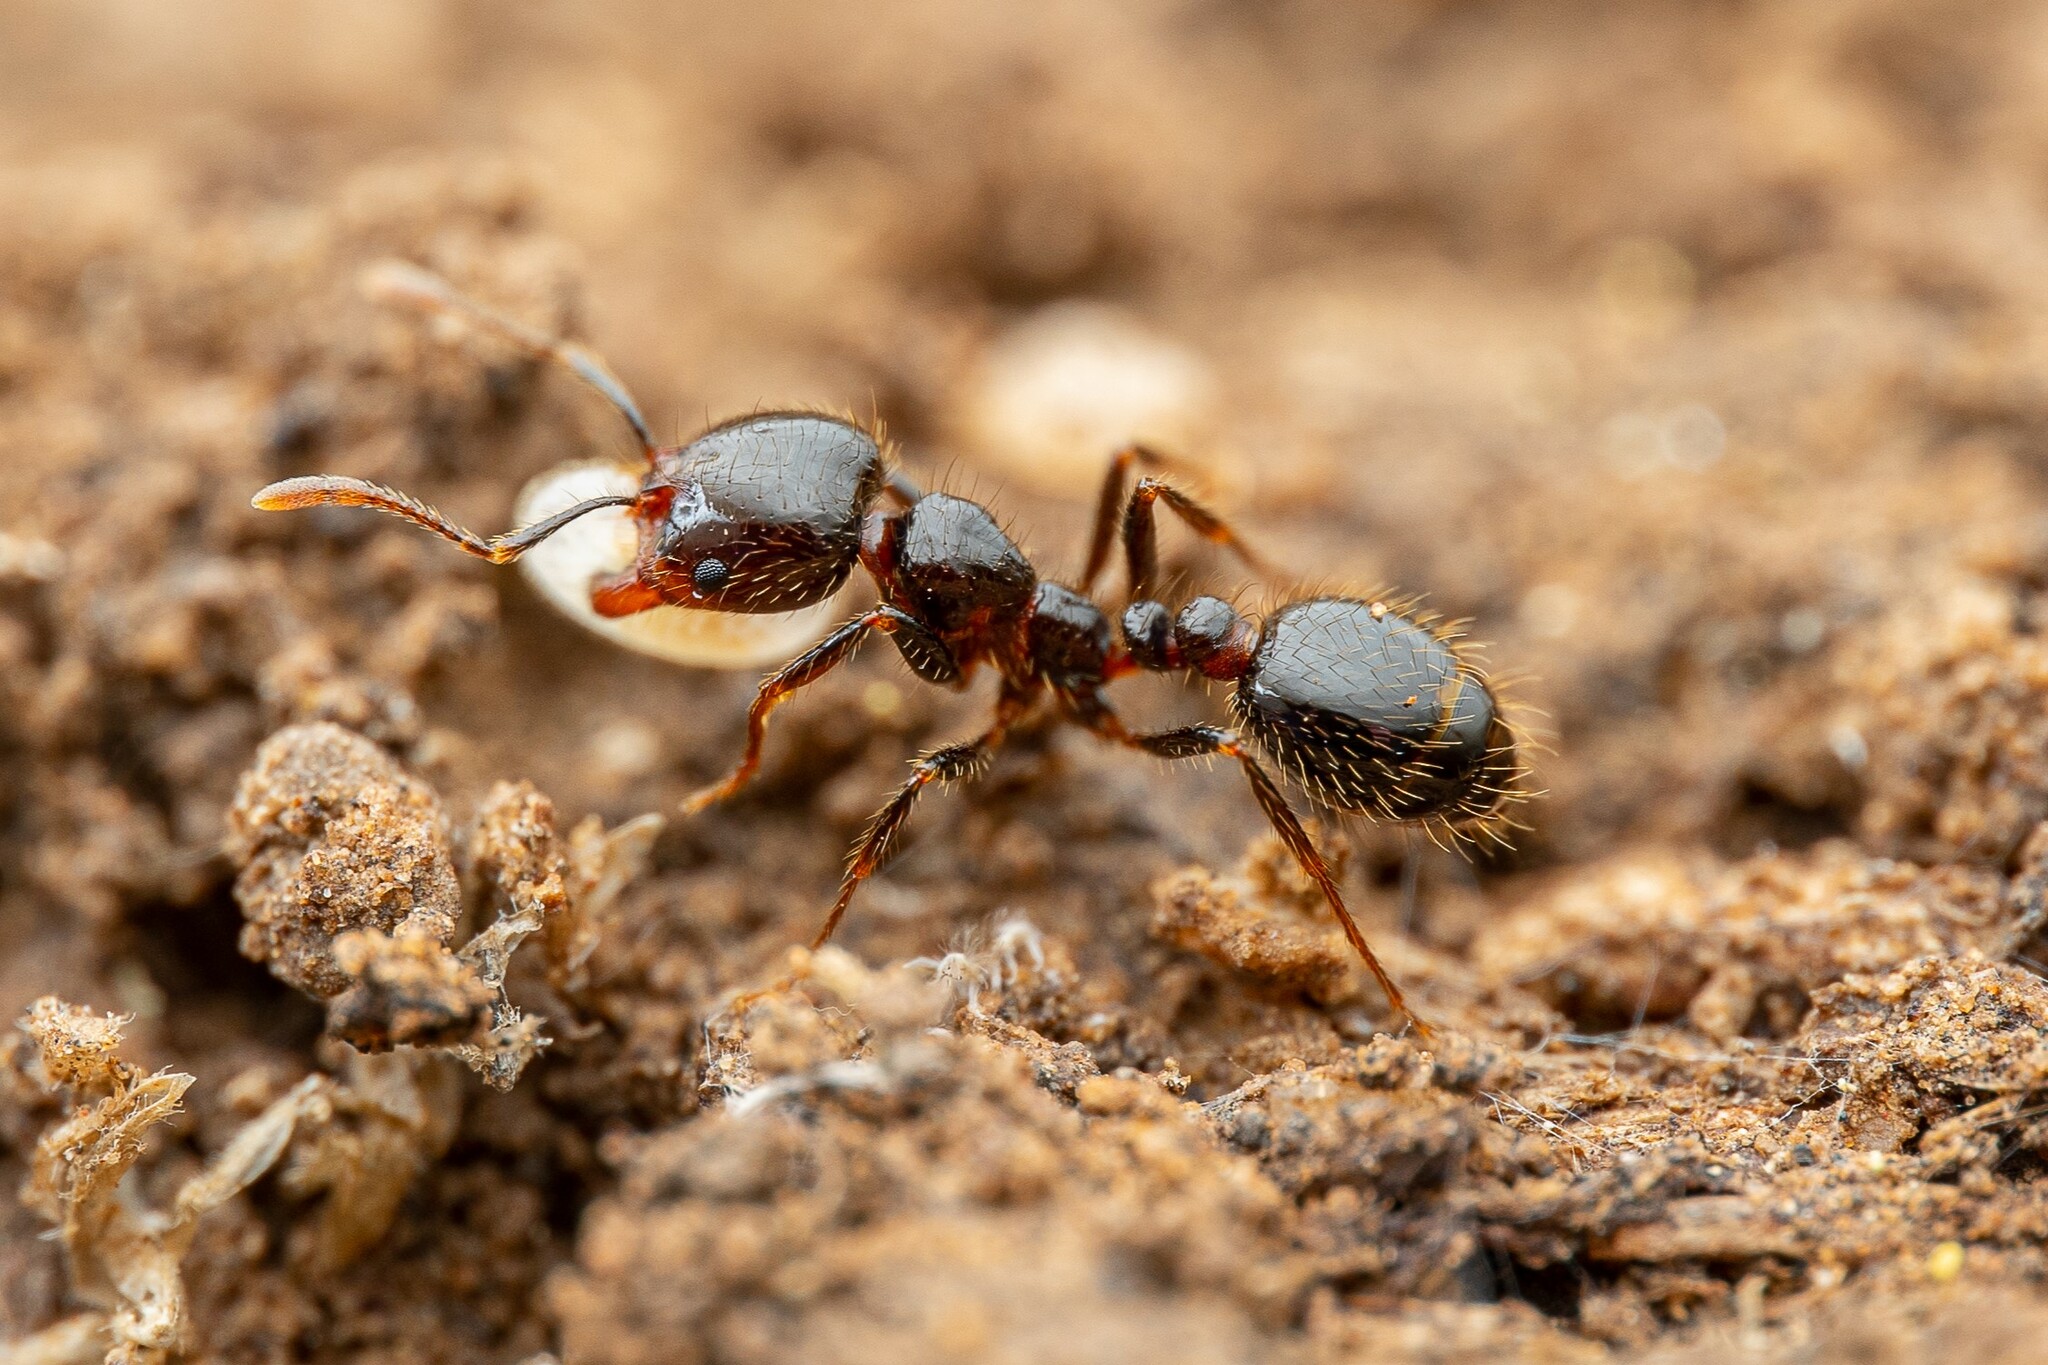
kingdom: Animalia
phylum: Arthropoda
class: Insecta
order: Hymenoptera
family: Formicidae
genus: Solenopsis
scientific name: Solenopsis xyloni
